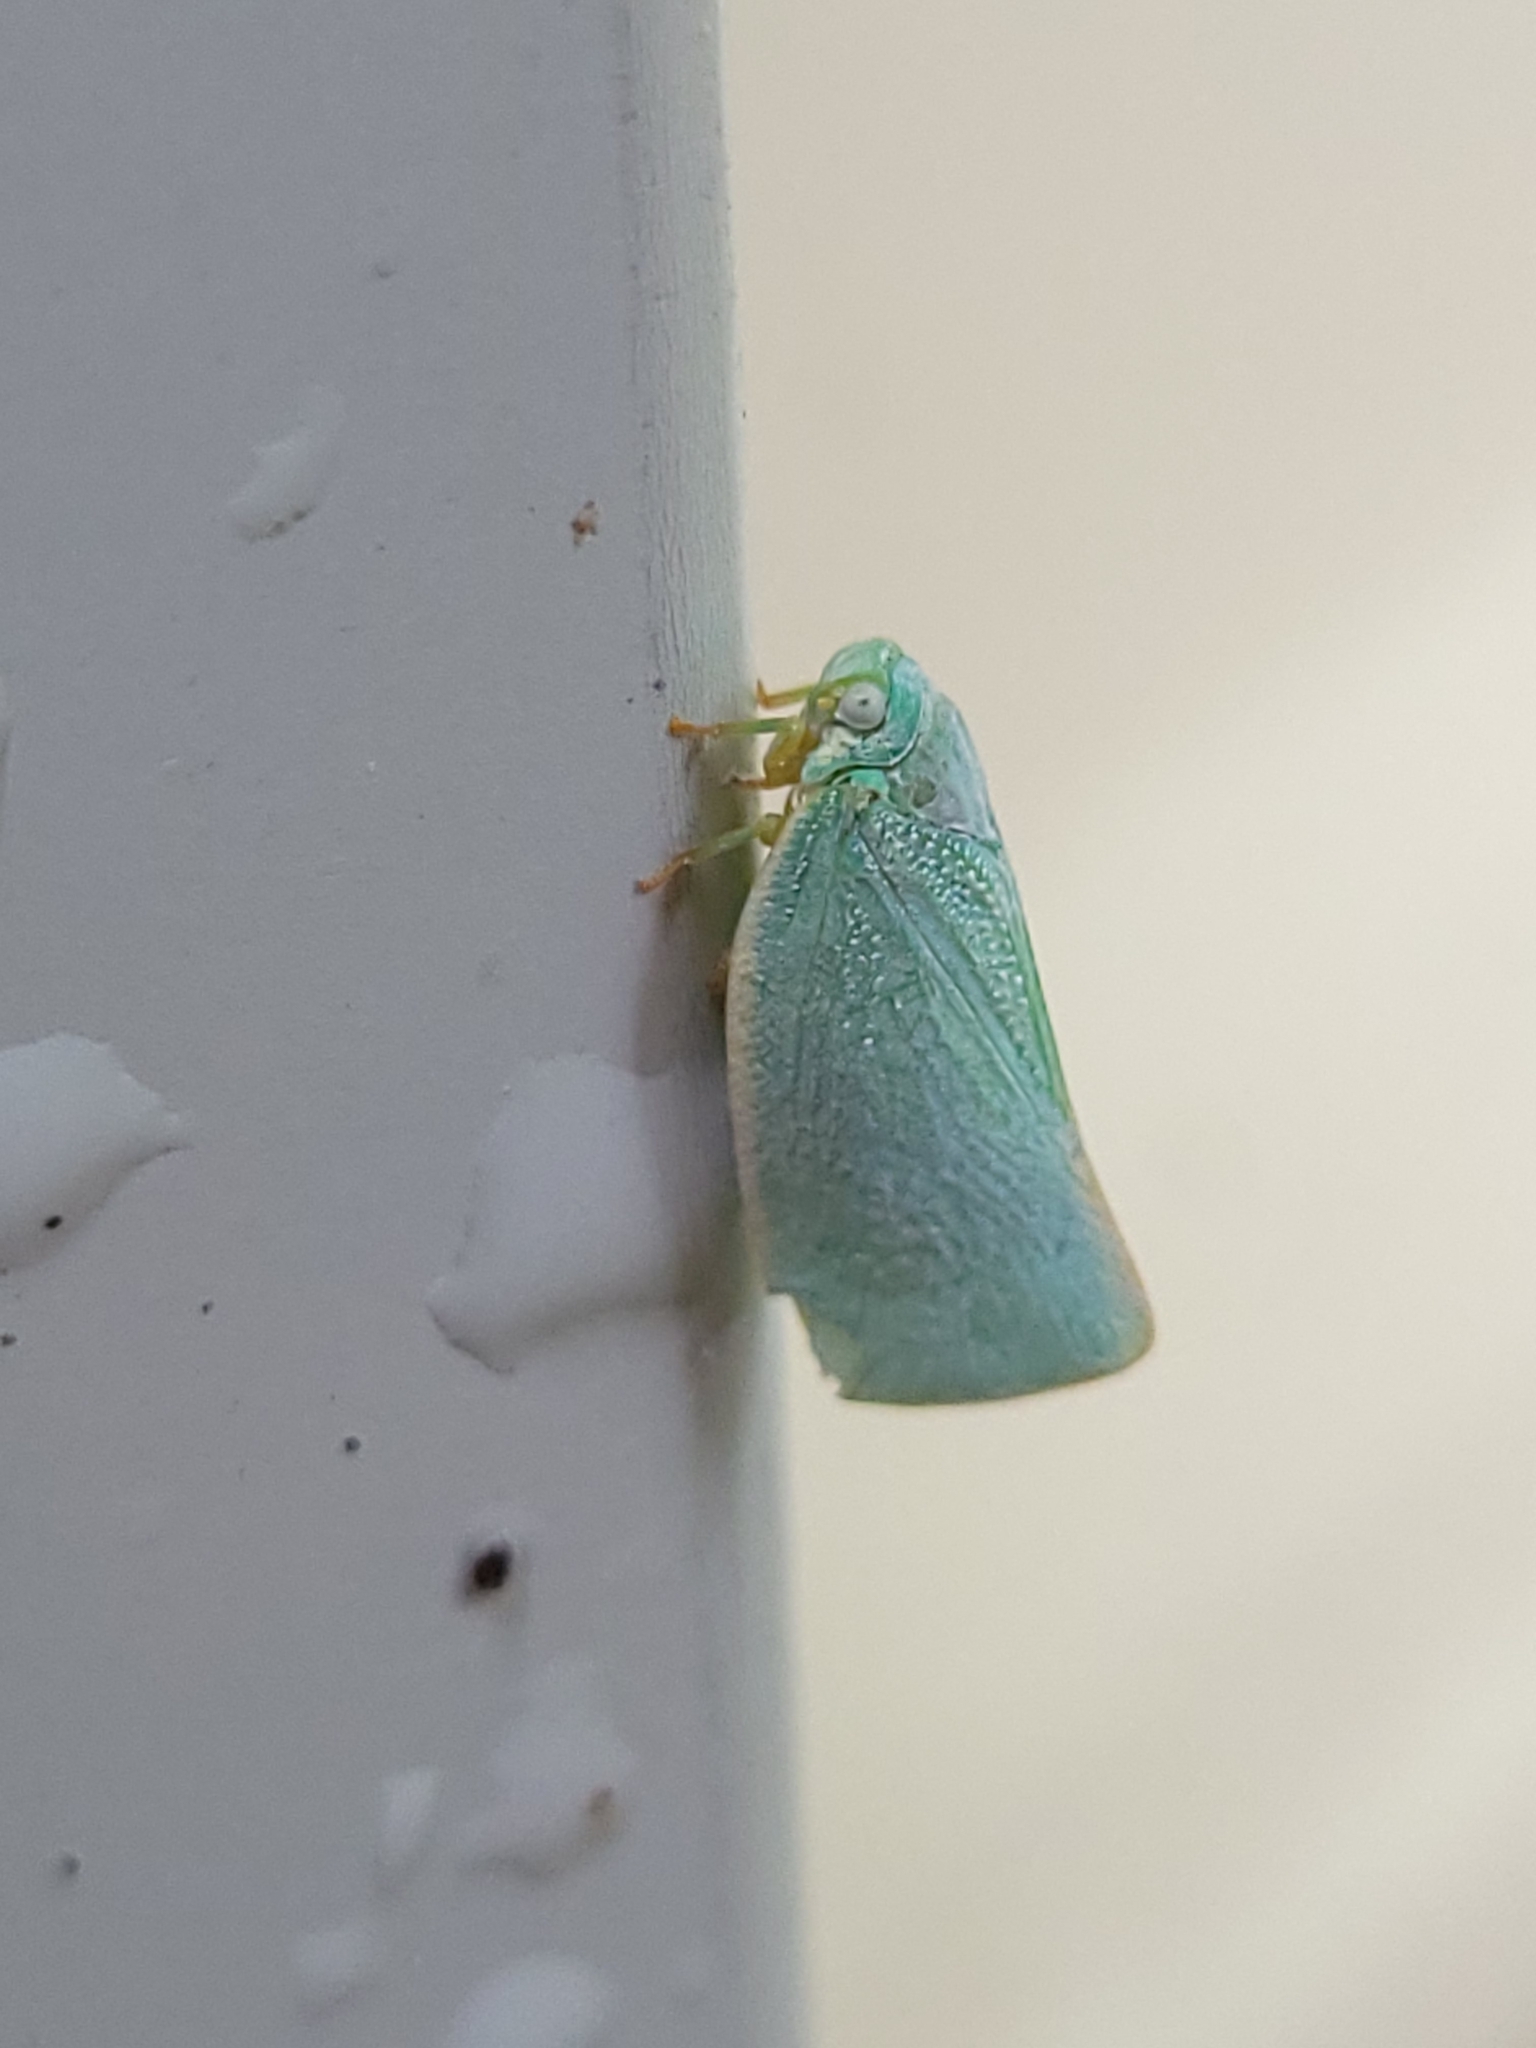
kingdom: Animalia
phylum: Arthropoda
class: Insecta
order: Hemiptera
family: Flatidae
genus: Flatormenis
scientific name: Flatormenis proxima
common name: Northern flatid planthopper
